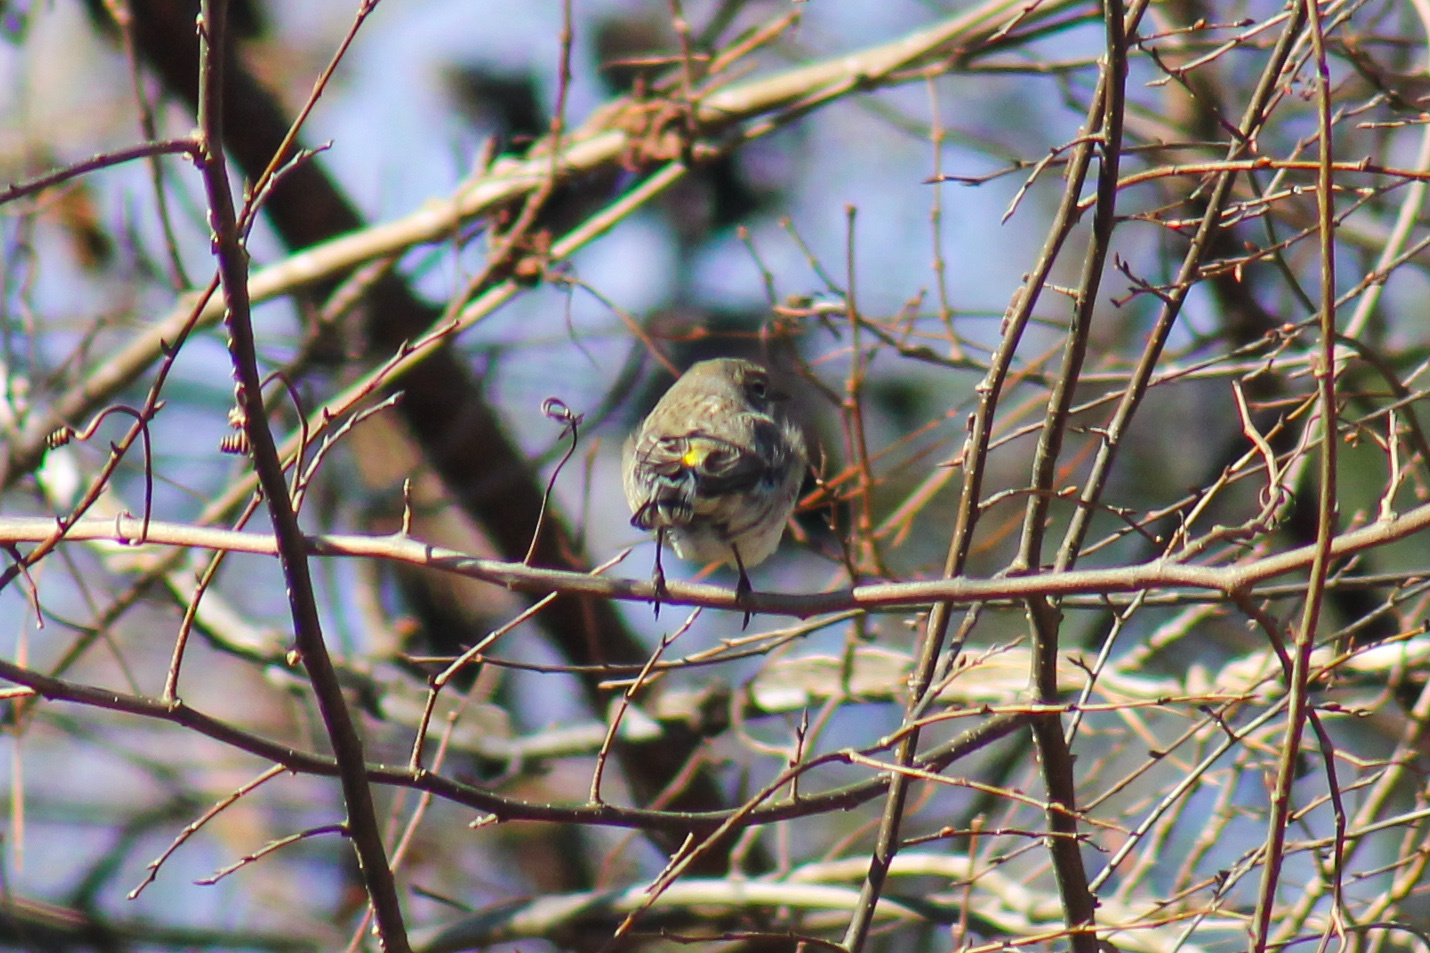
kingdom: Animalia
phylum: Chordata
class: Aves
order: Passeriformes
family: Parulidae
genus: Setophaga
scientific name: Setophaga coronata
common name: Myrtle warbler
